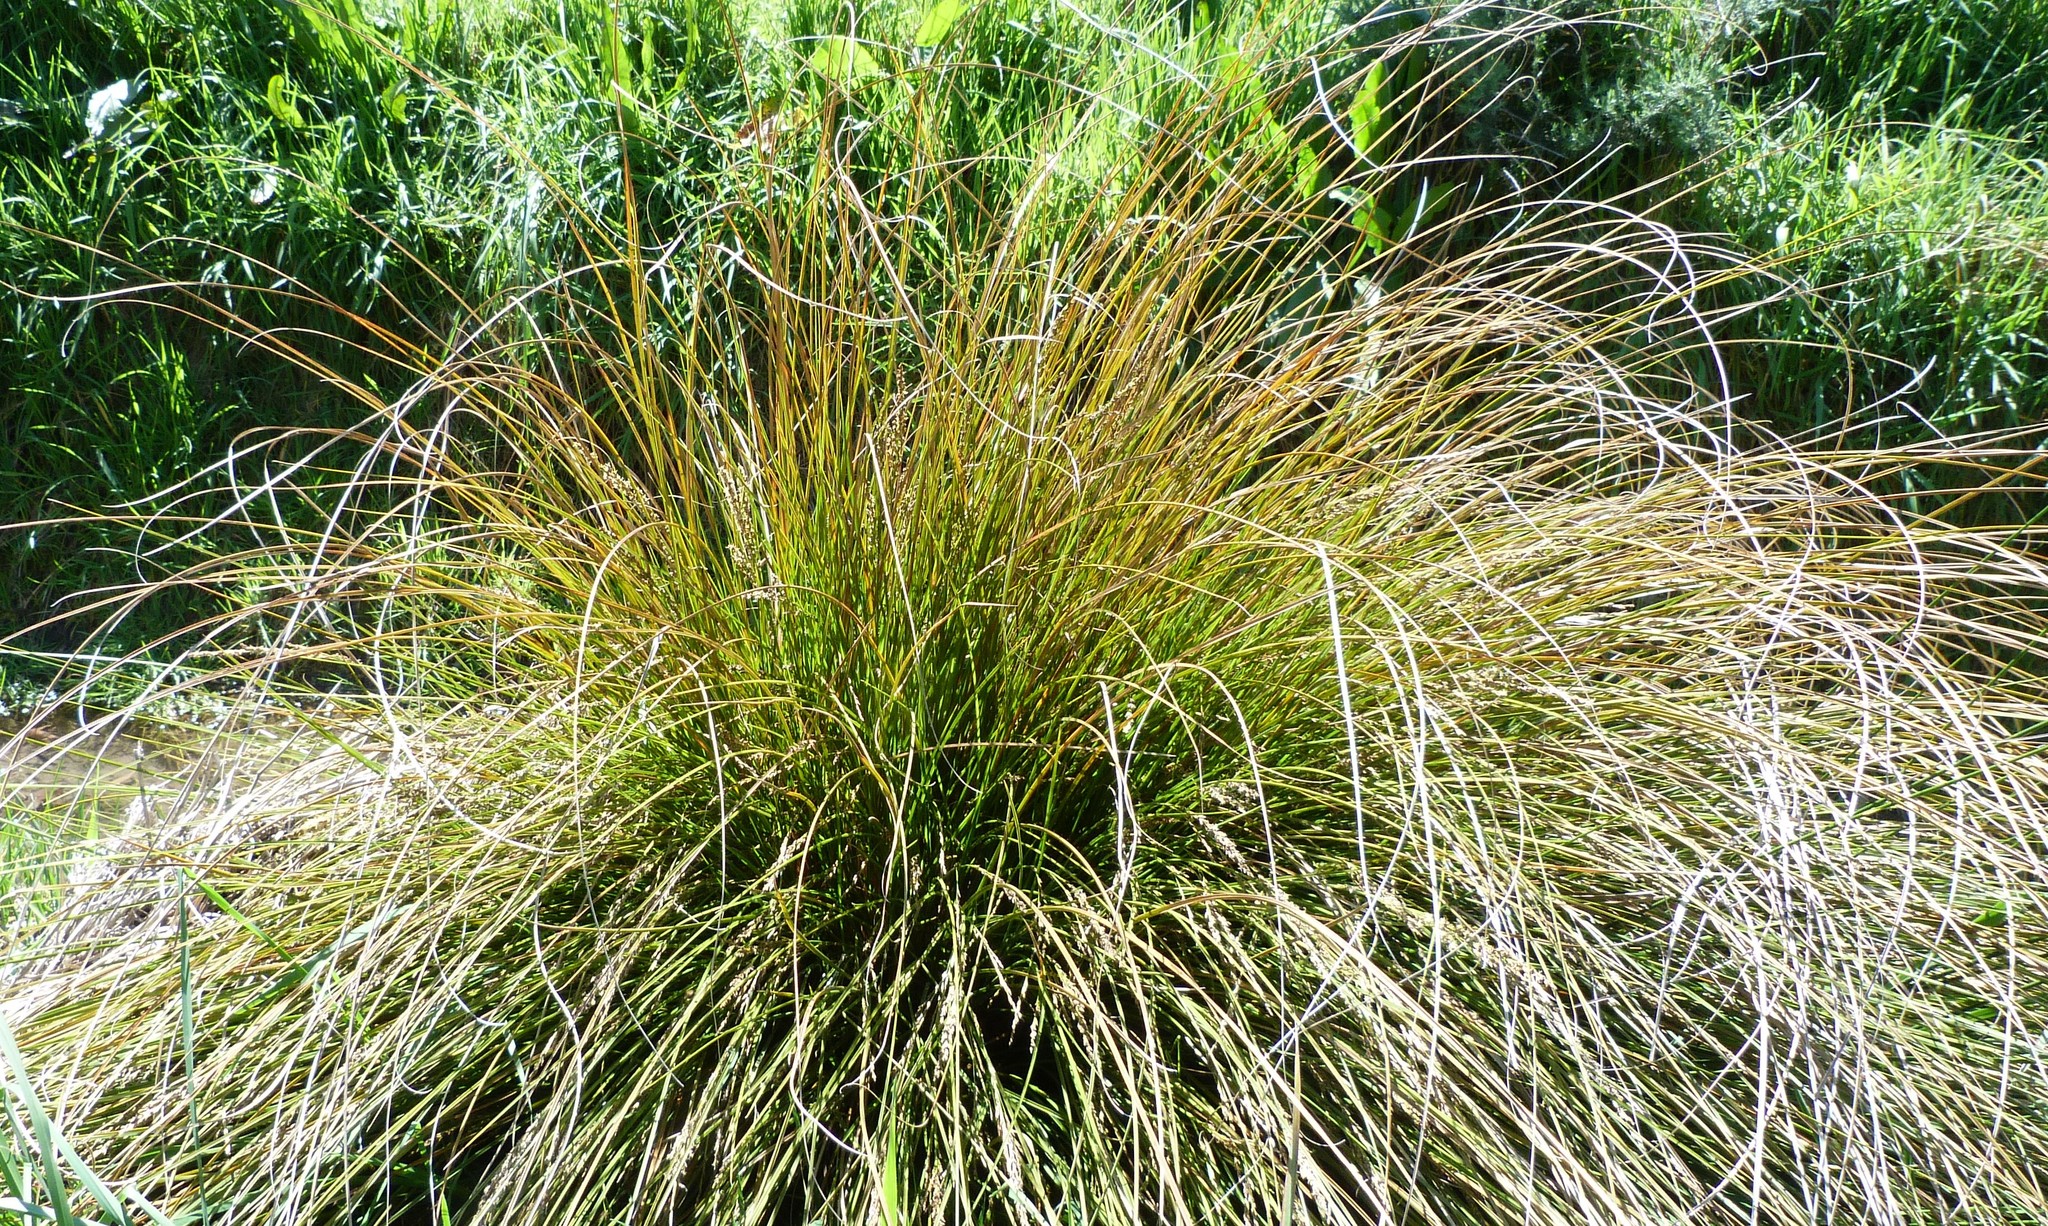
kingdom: Plantae
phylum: Tracheophyta
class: Liliopsida
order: Poales
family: Cyperaceae
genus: Carex
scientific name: Carex virgata
